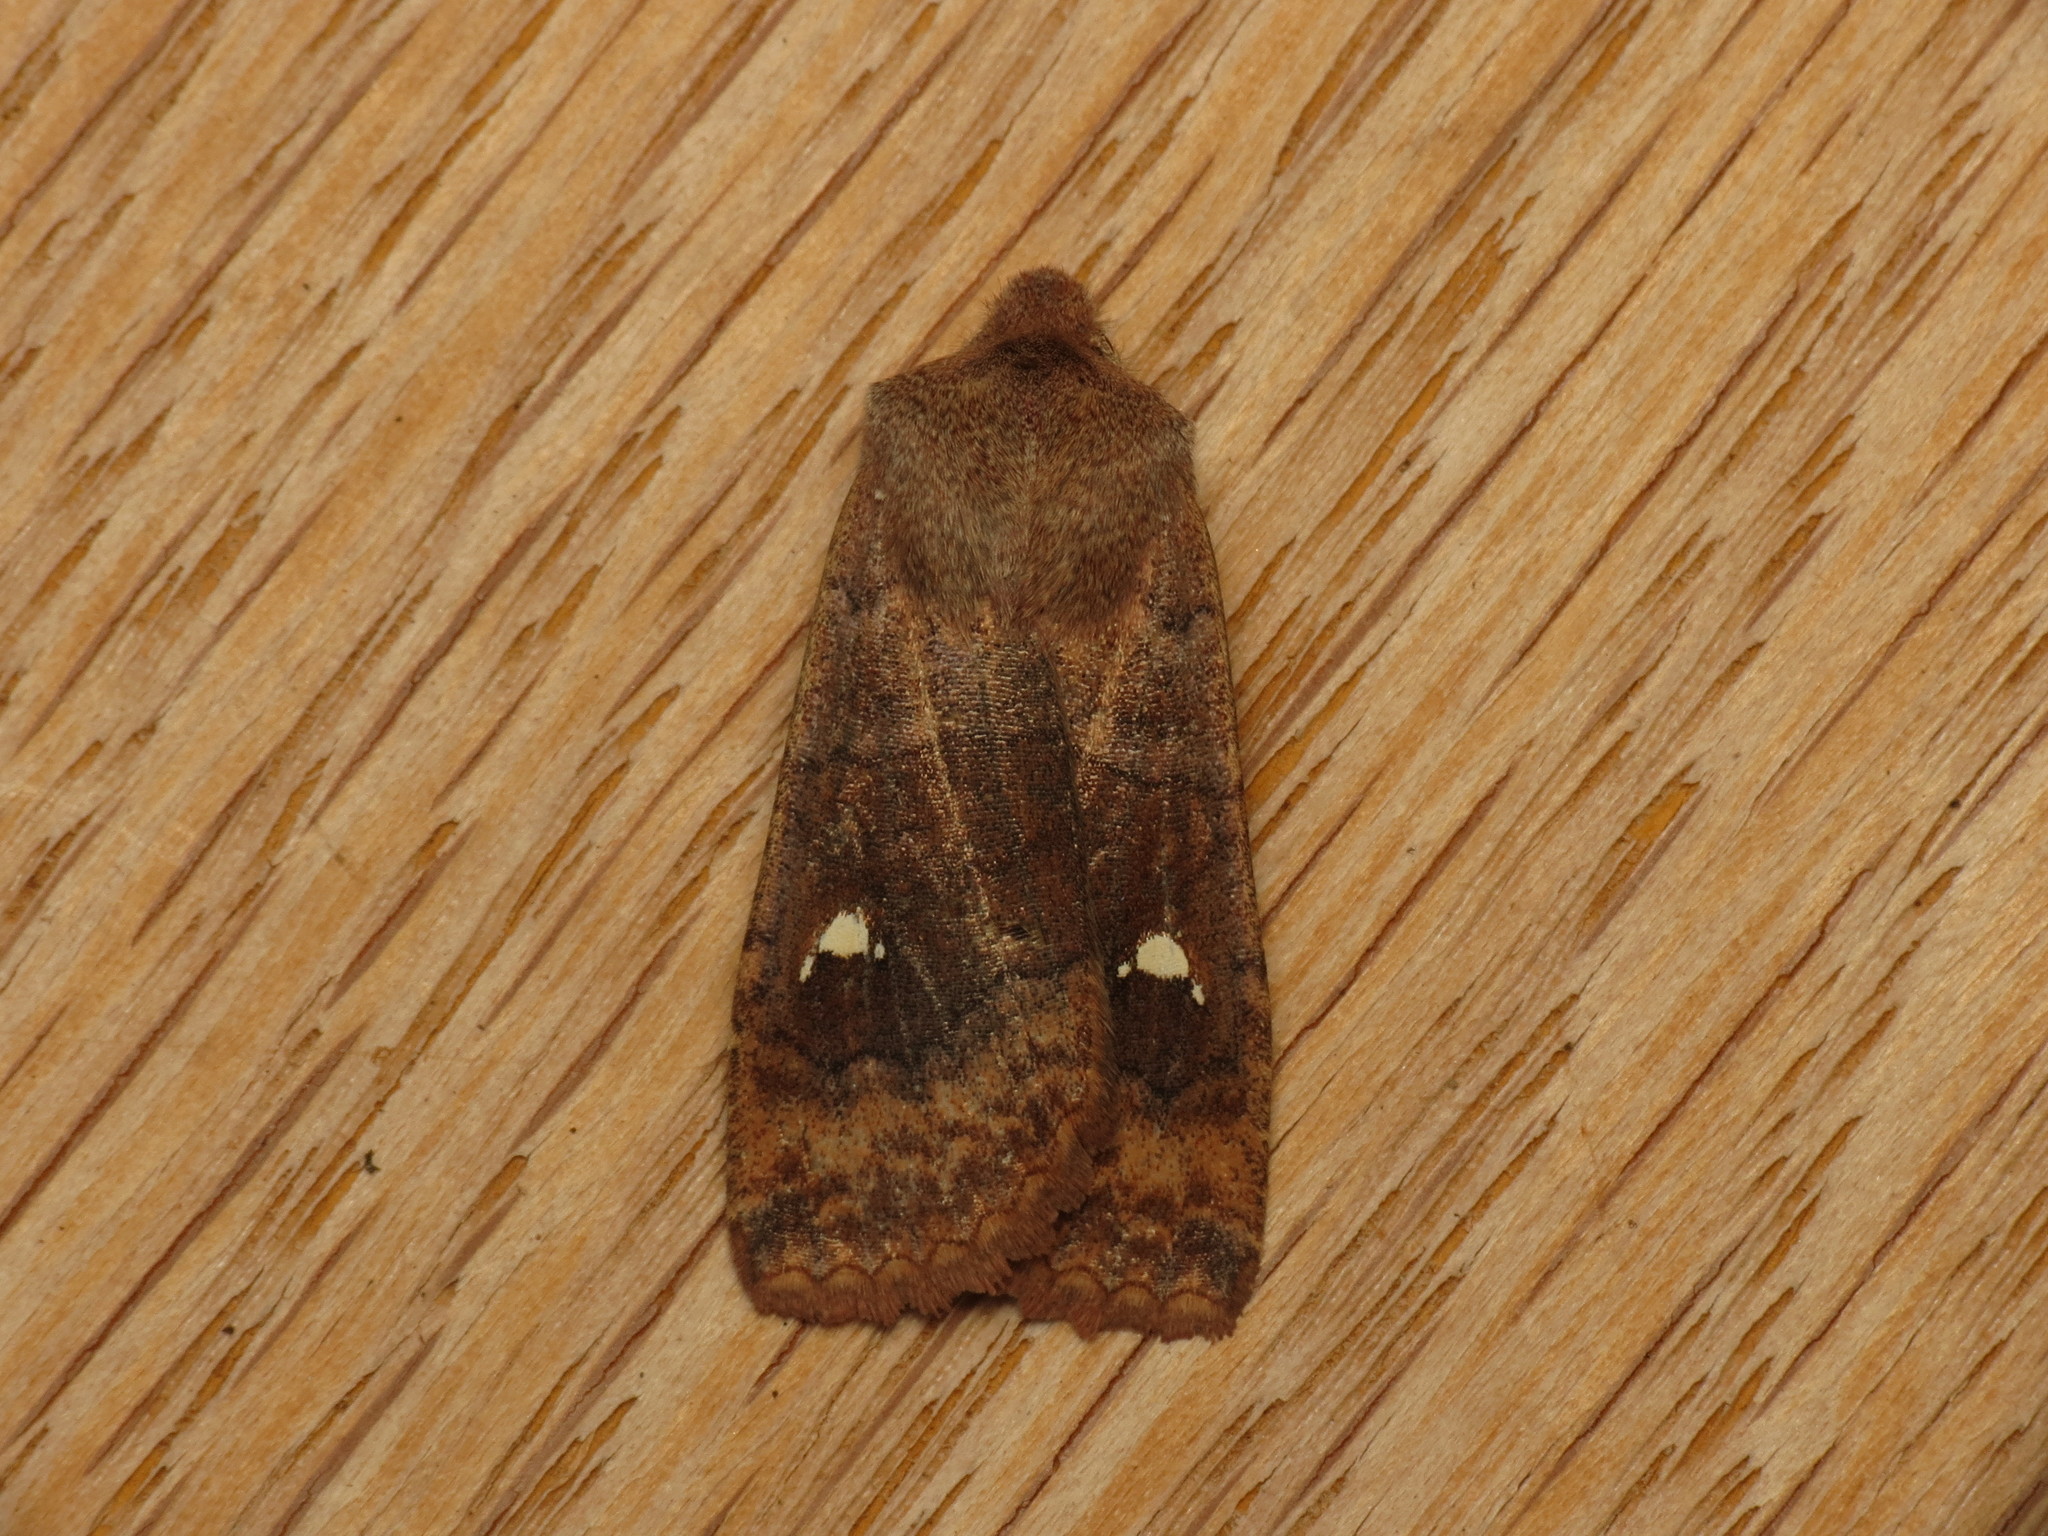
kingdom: Animalia
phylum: Arthropoda
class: Insecta
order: Lepidoptera
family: Noctuidae
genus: Eupsilia
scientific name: Eupsilia transversa
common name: Satellite
